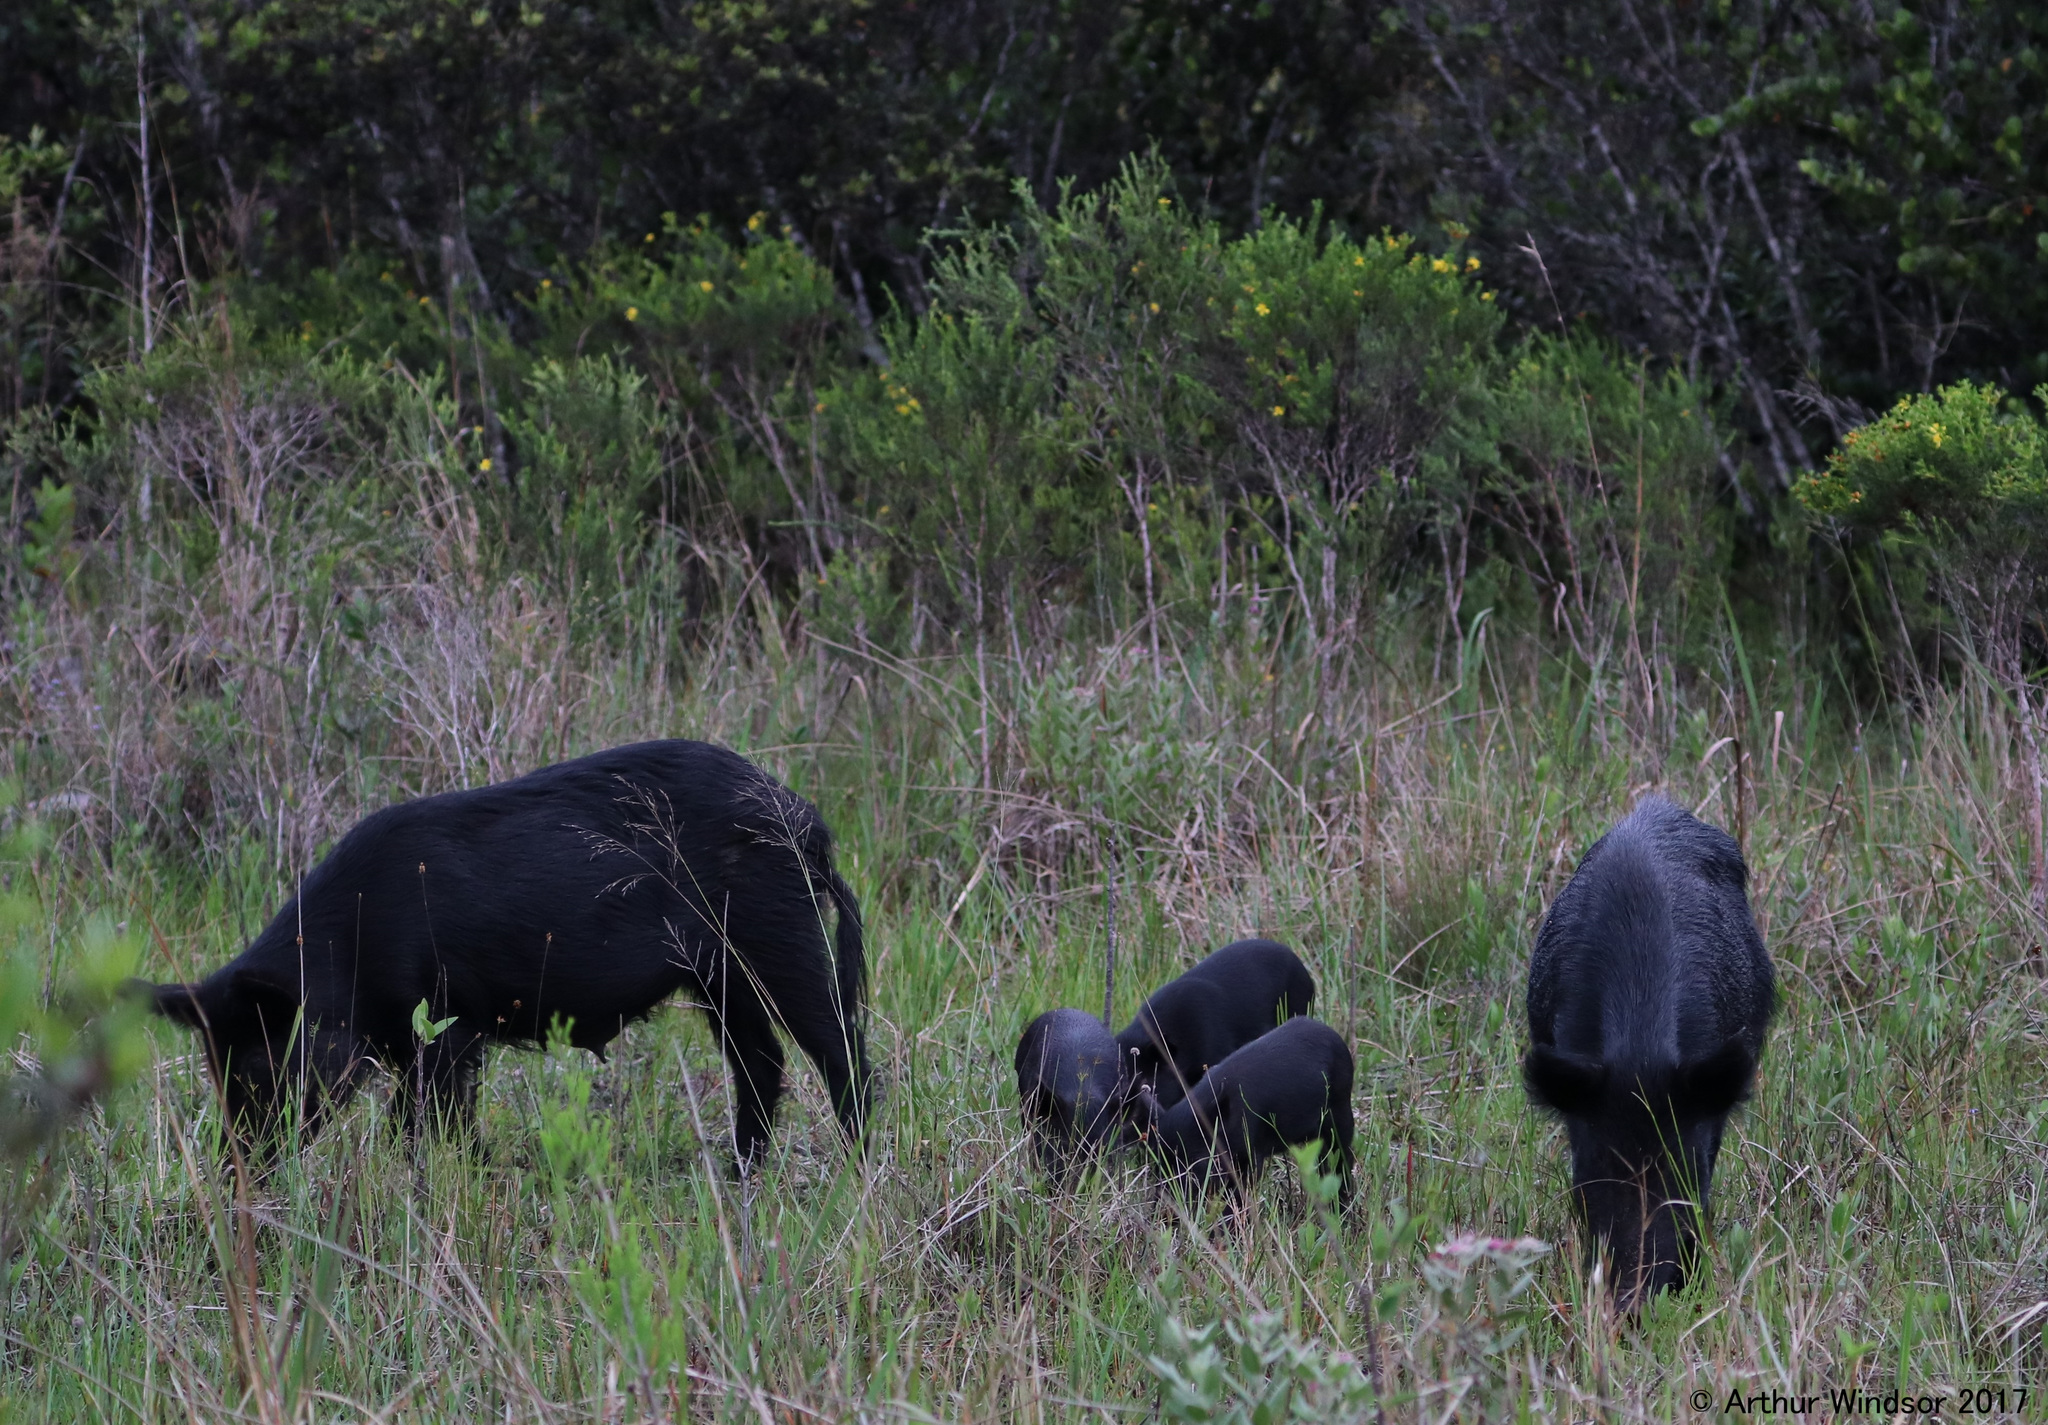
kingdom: Animalia
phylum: Chordata
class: Mammalia
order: Artiodactyla
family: Suidae
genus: Sus
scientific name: Sus scrofa
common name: Wild boar
